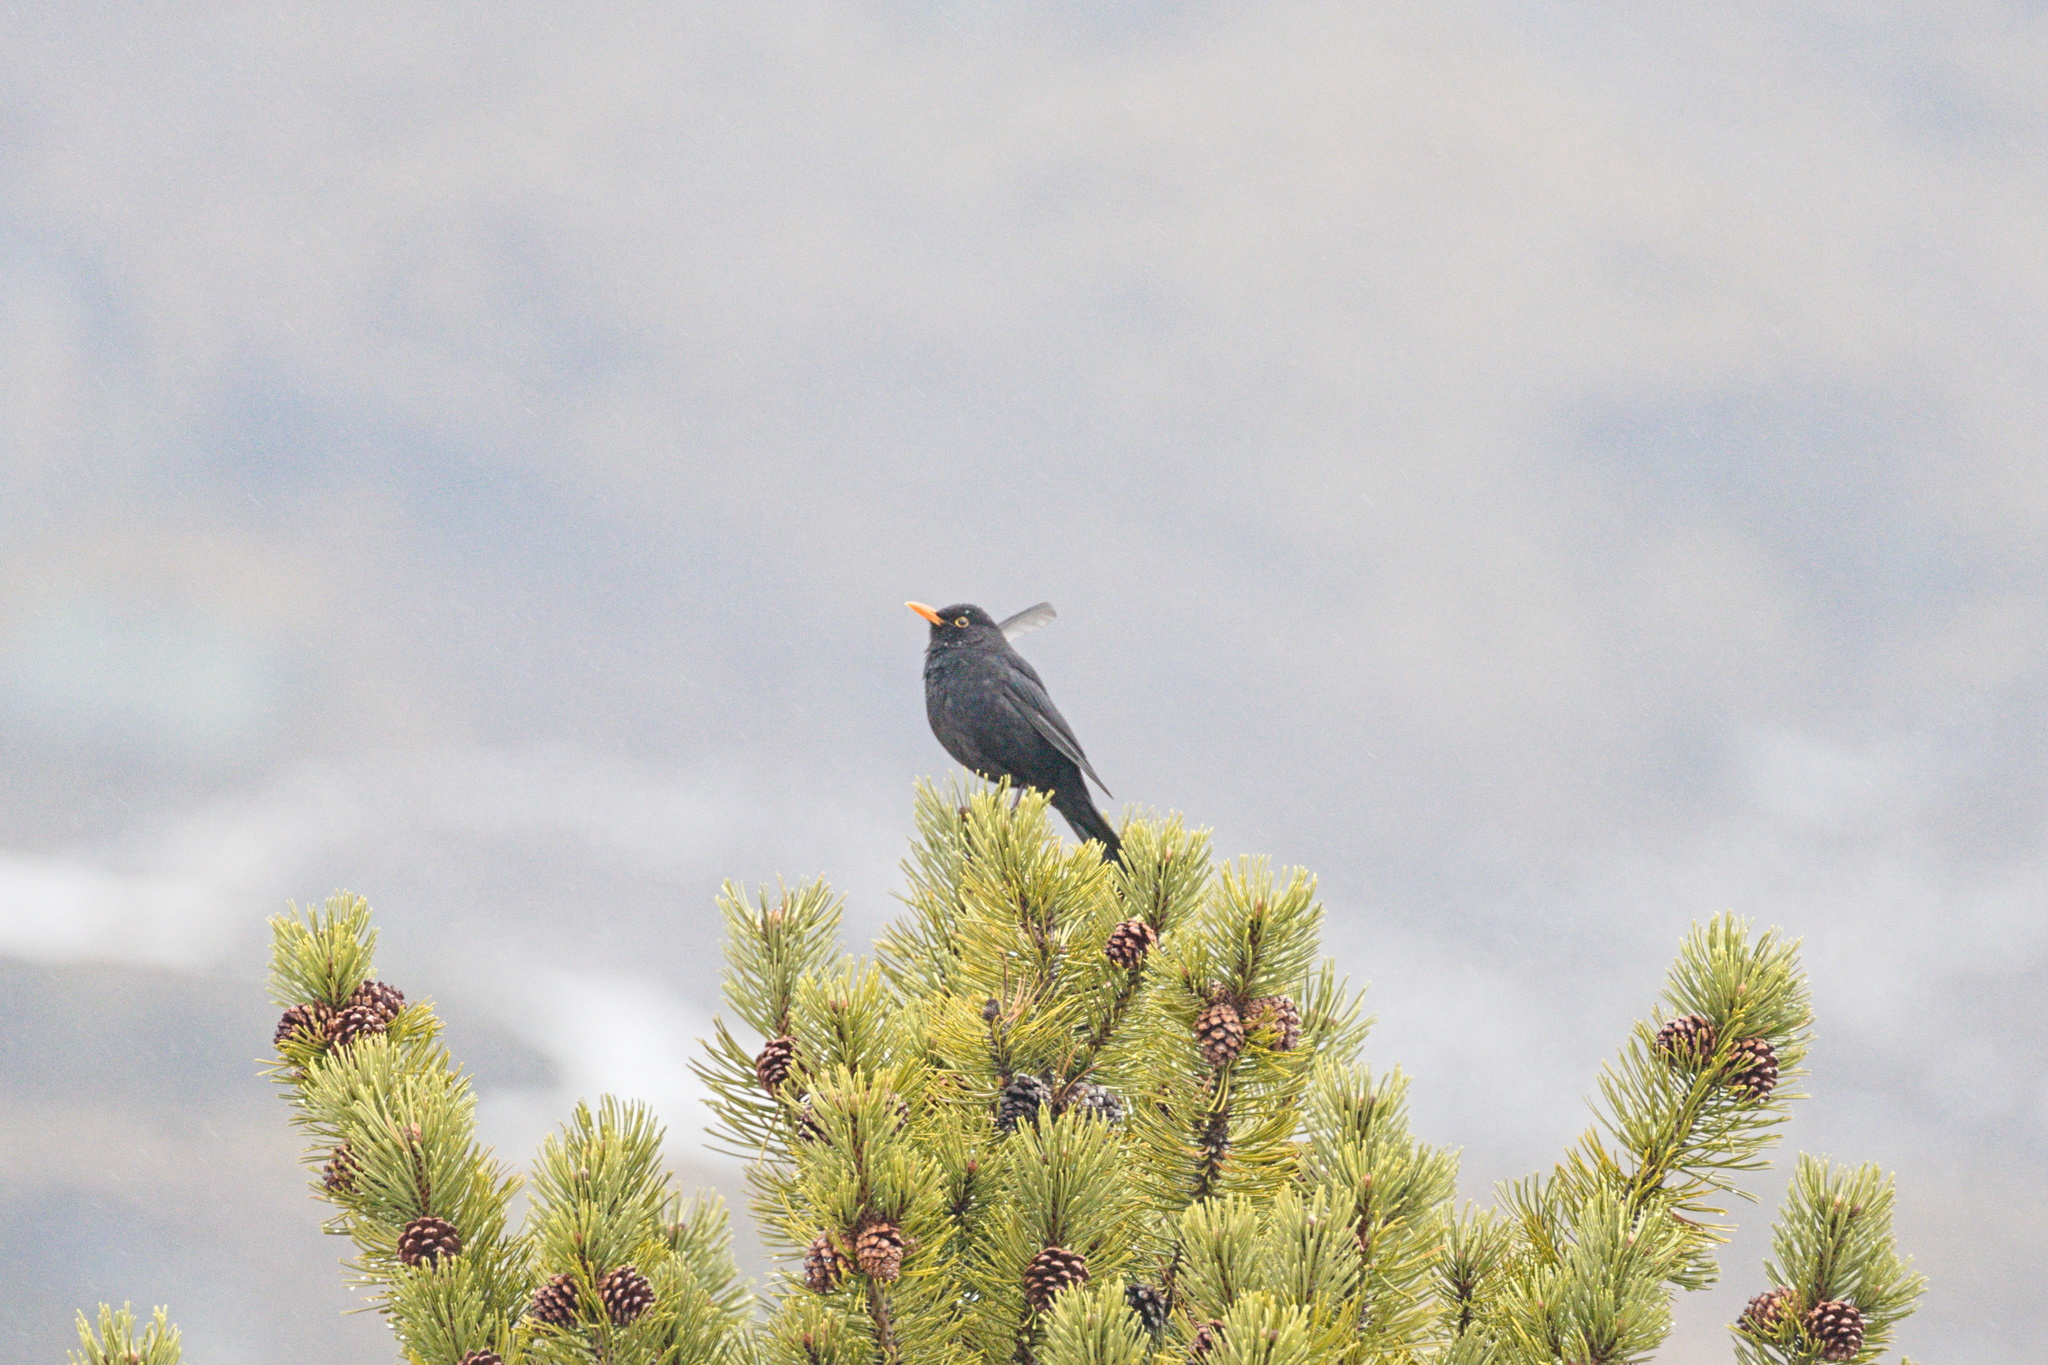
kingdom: Animalia
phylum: Chordata
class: Aves
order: Passeriformes
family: Turdidae
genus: Turdus
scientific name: Turdus merula
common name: Common blackbird
